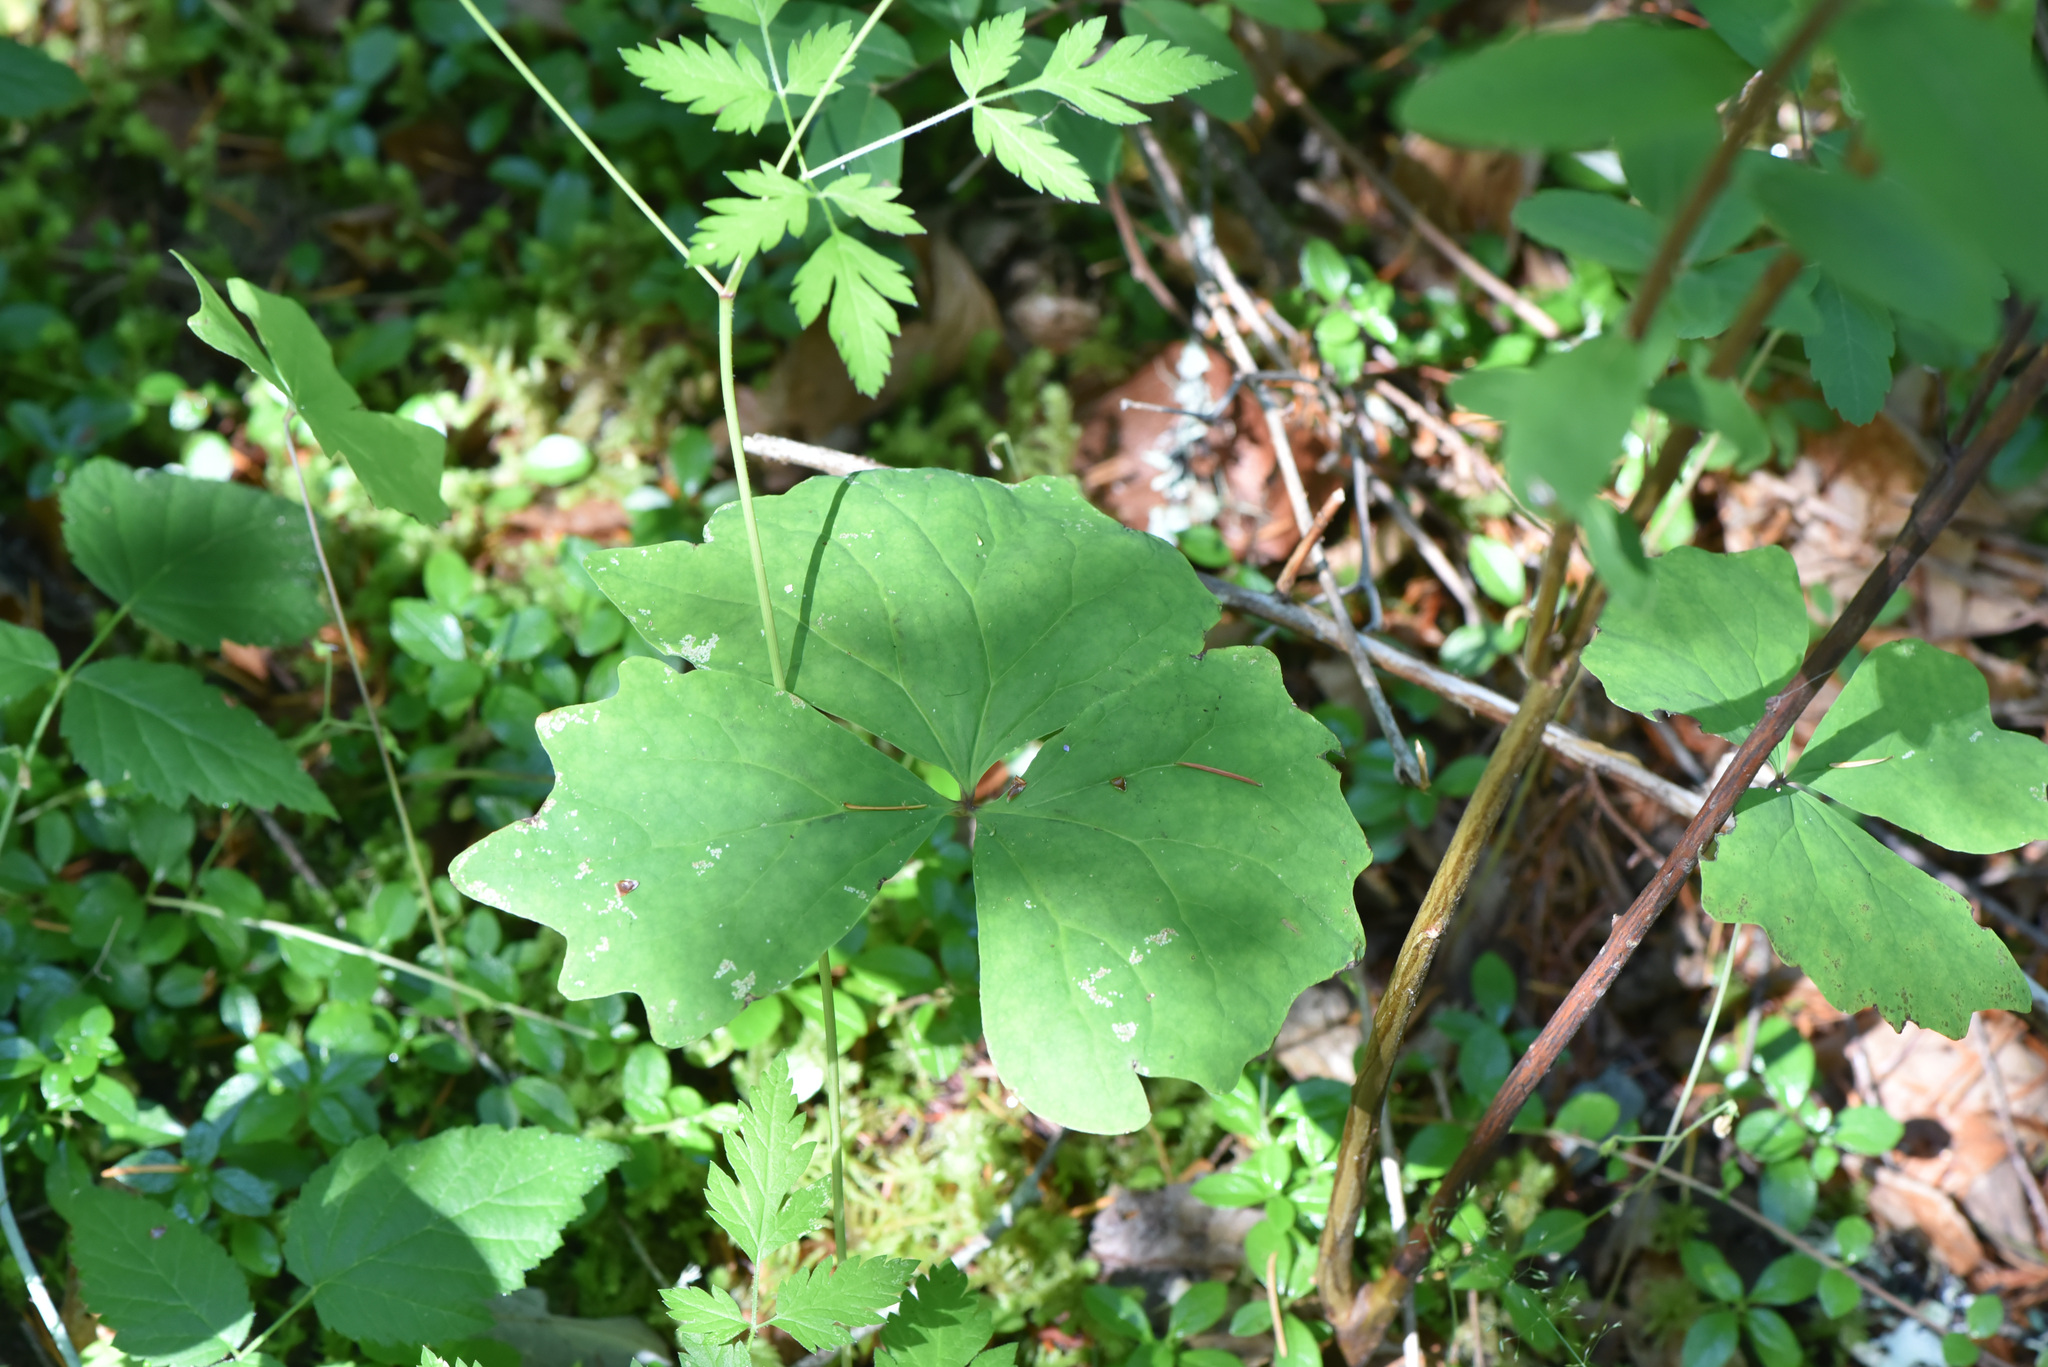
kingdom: Plantae
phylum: Tracheophyta
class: Magnoliopsida
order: Ranunculales
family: Berberidaceae
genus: Achlys
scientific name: Achlys triphylla
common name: Vanilla-leaf
